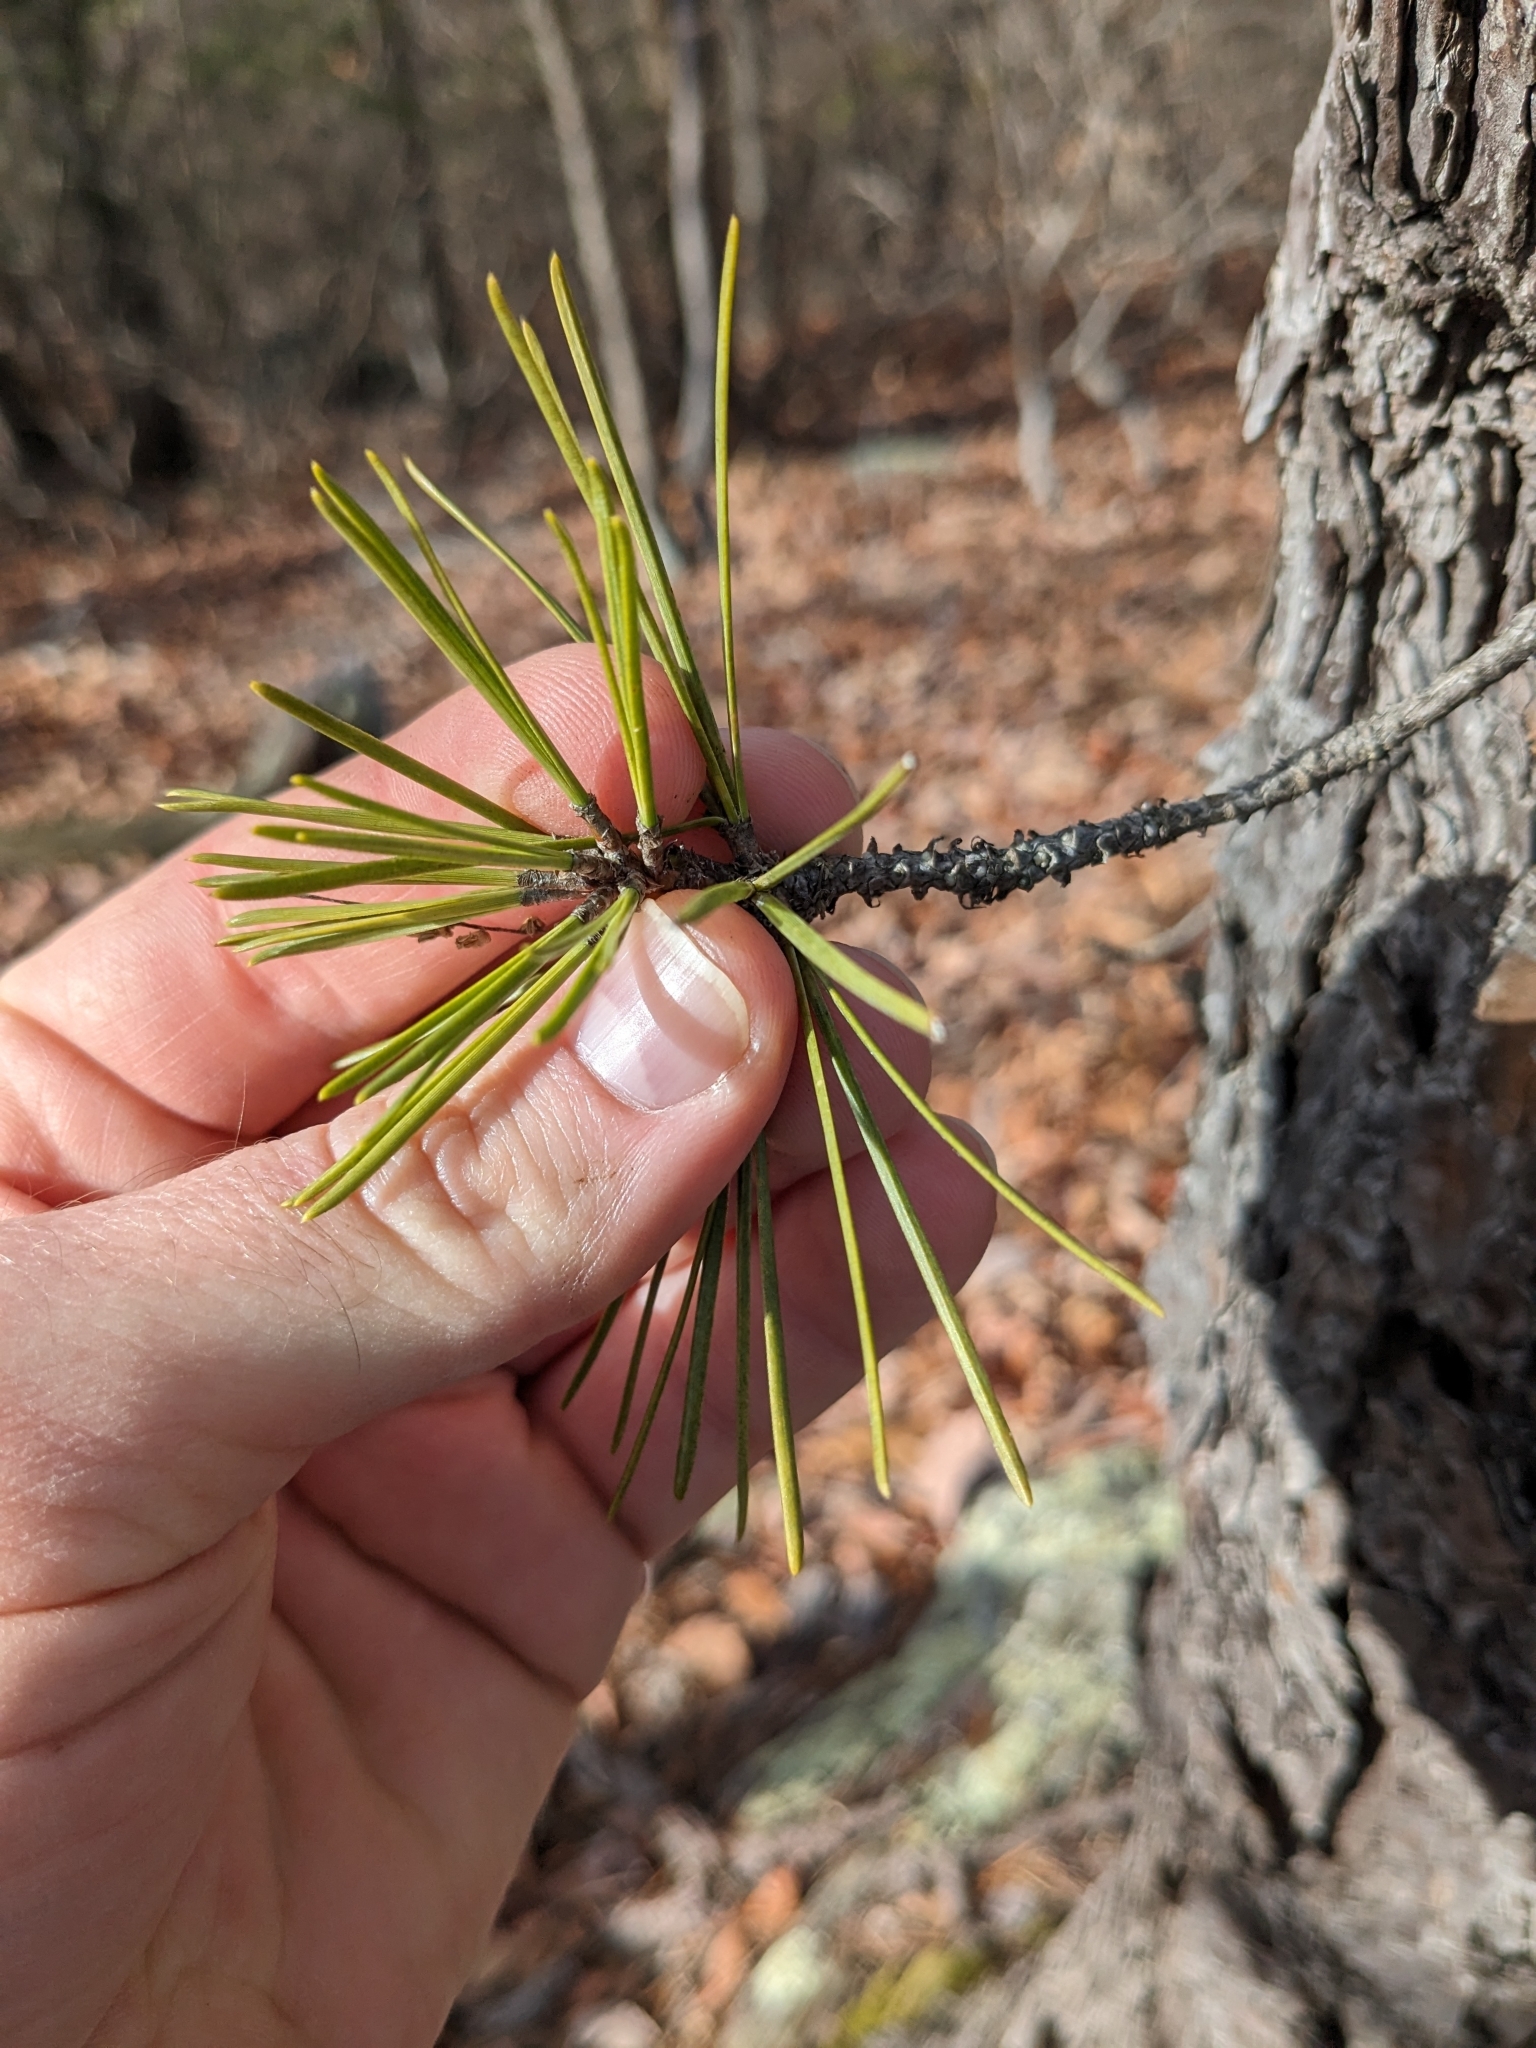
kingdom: Plantae
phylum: Tracheophyta
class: Pinopsida
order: Pinales
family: Pinaceae
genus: Pinus
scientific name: Pinus rigida
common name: Pitch pine
